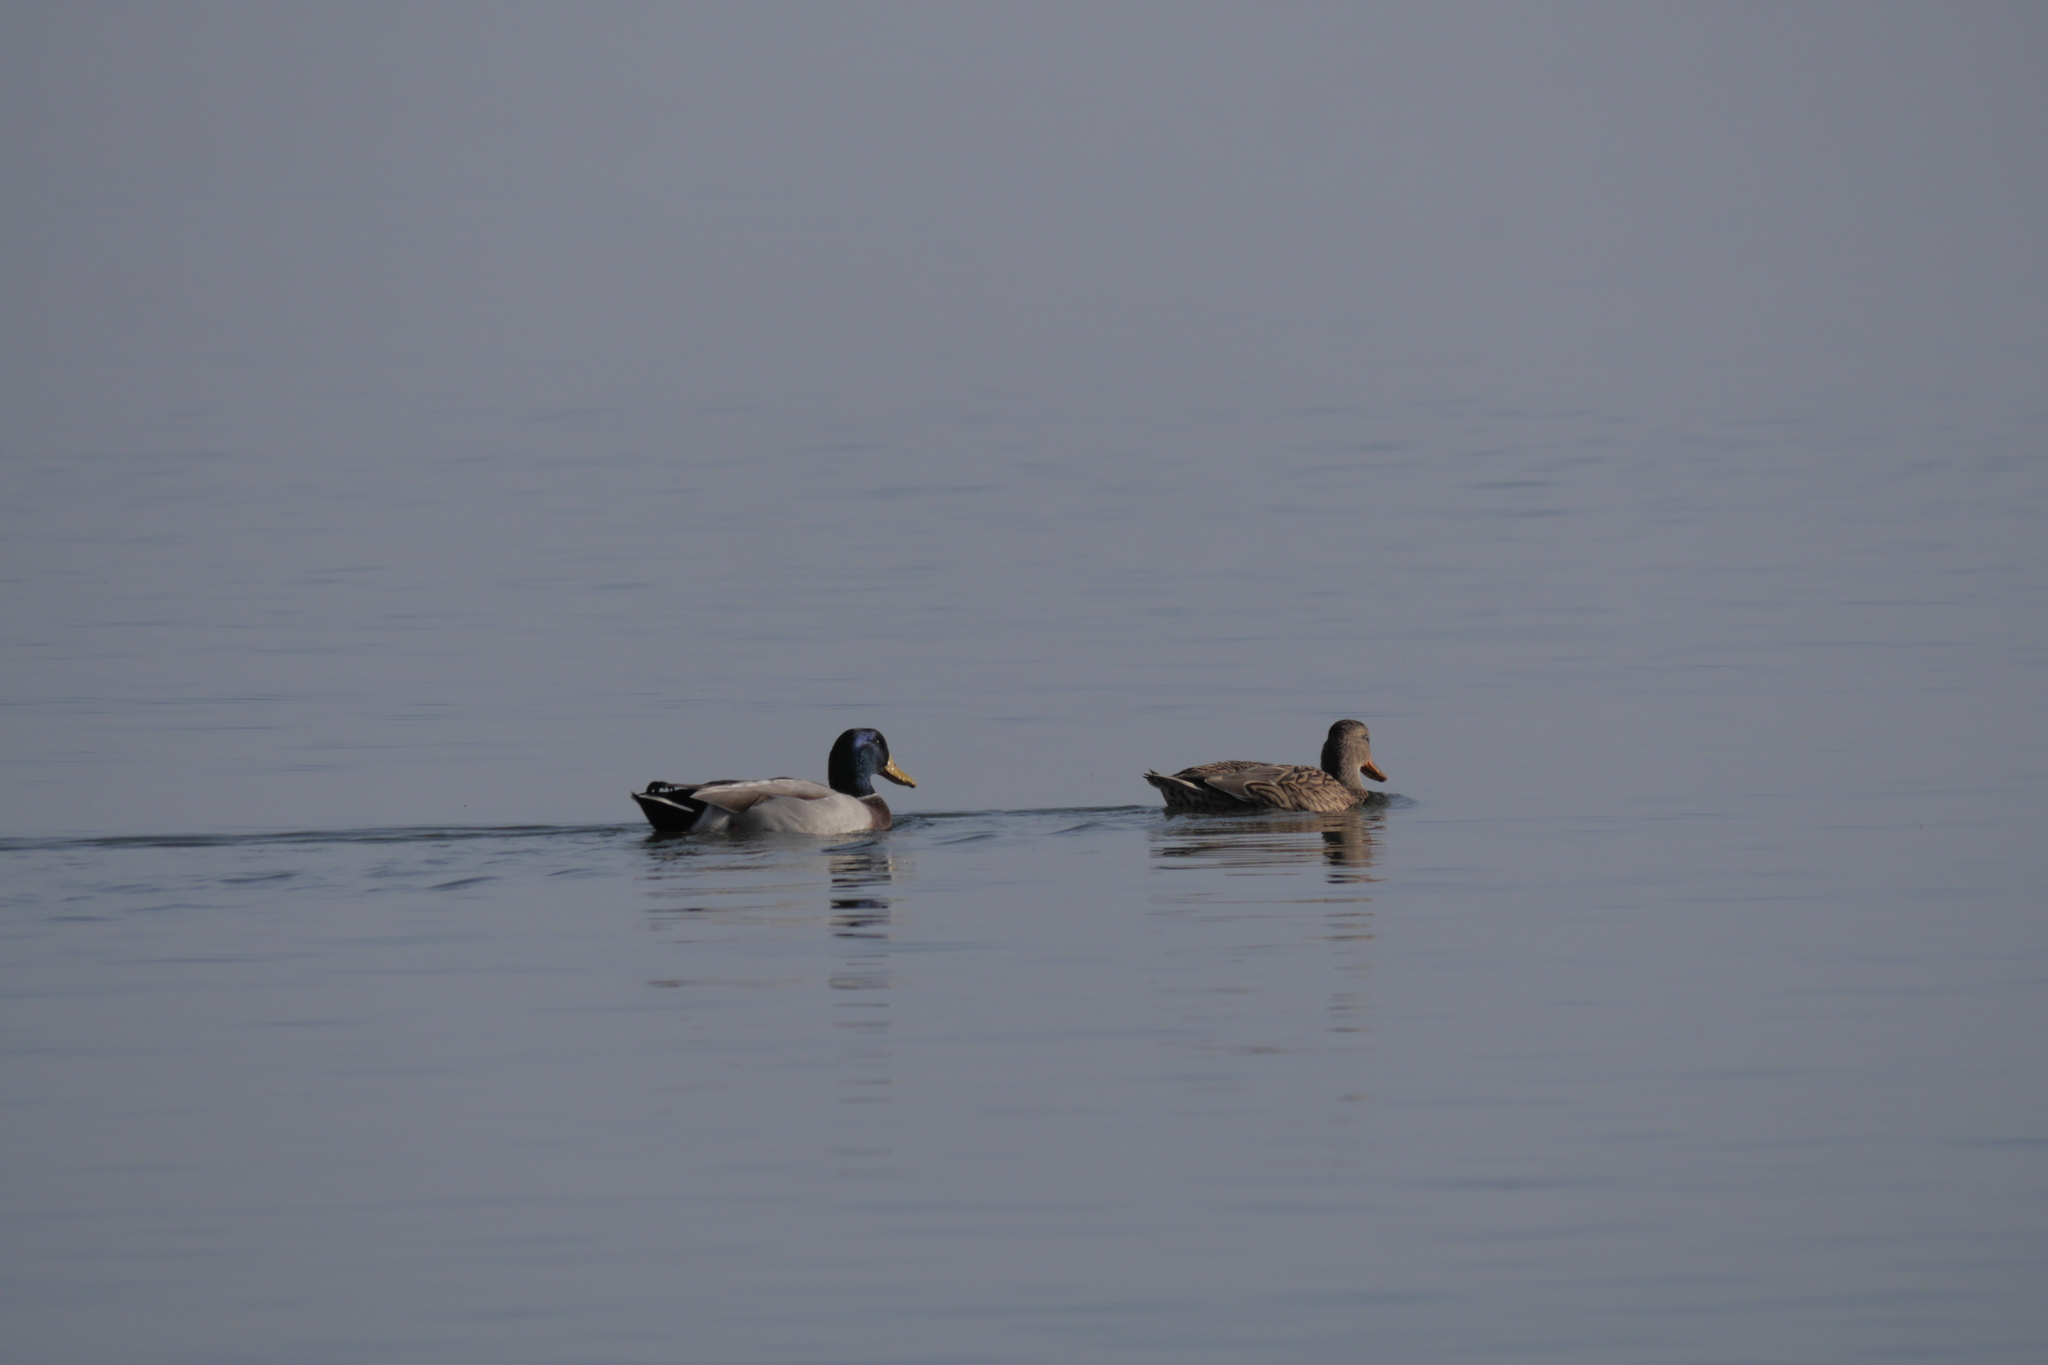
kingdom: Animalia
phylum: Chordata
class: Aves
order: Anseriformes
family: Anatidae
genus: Anas
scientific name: Anas platyrhynchos
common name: Mallard
